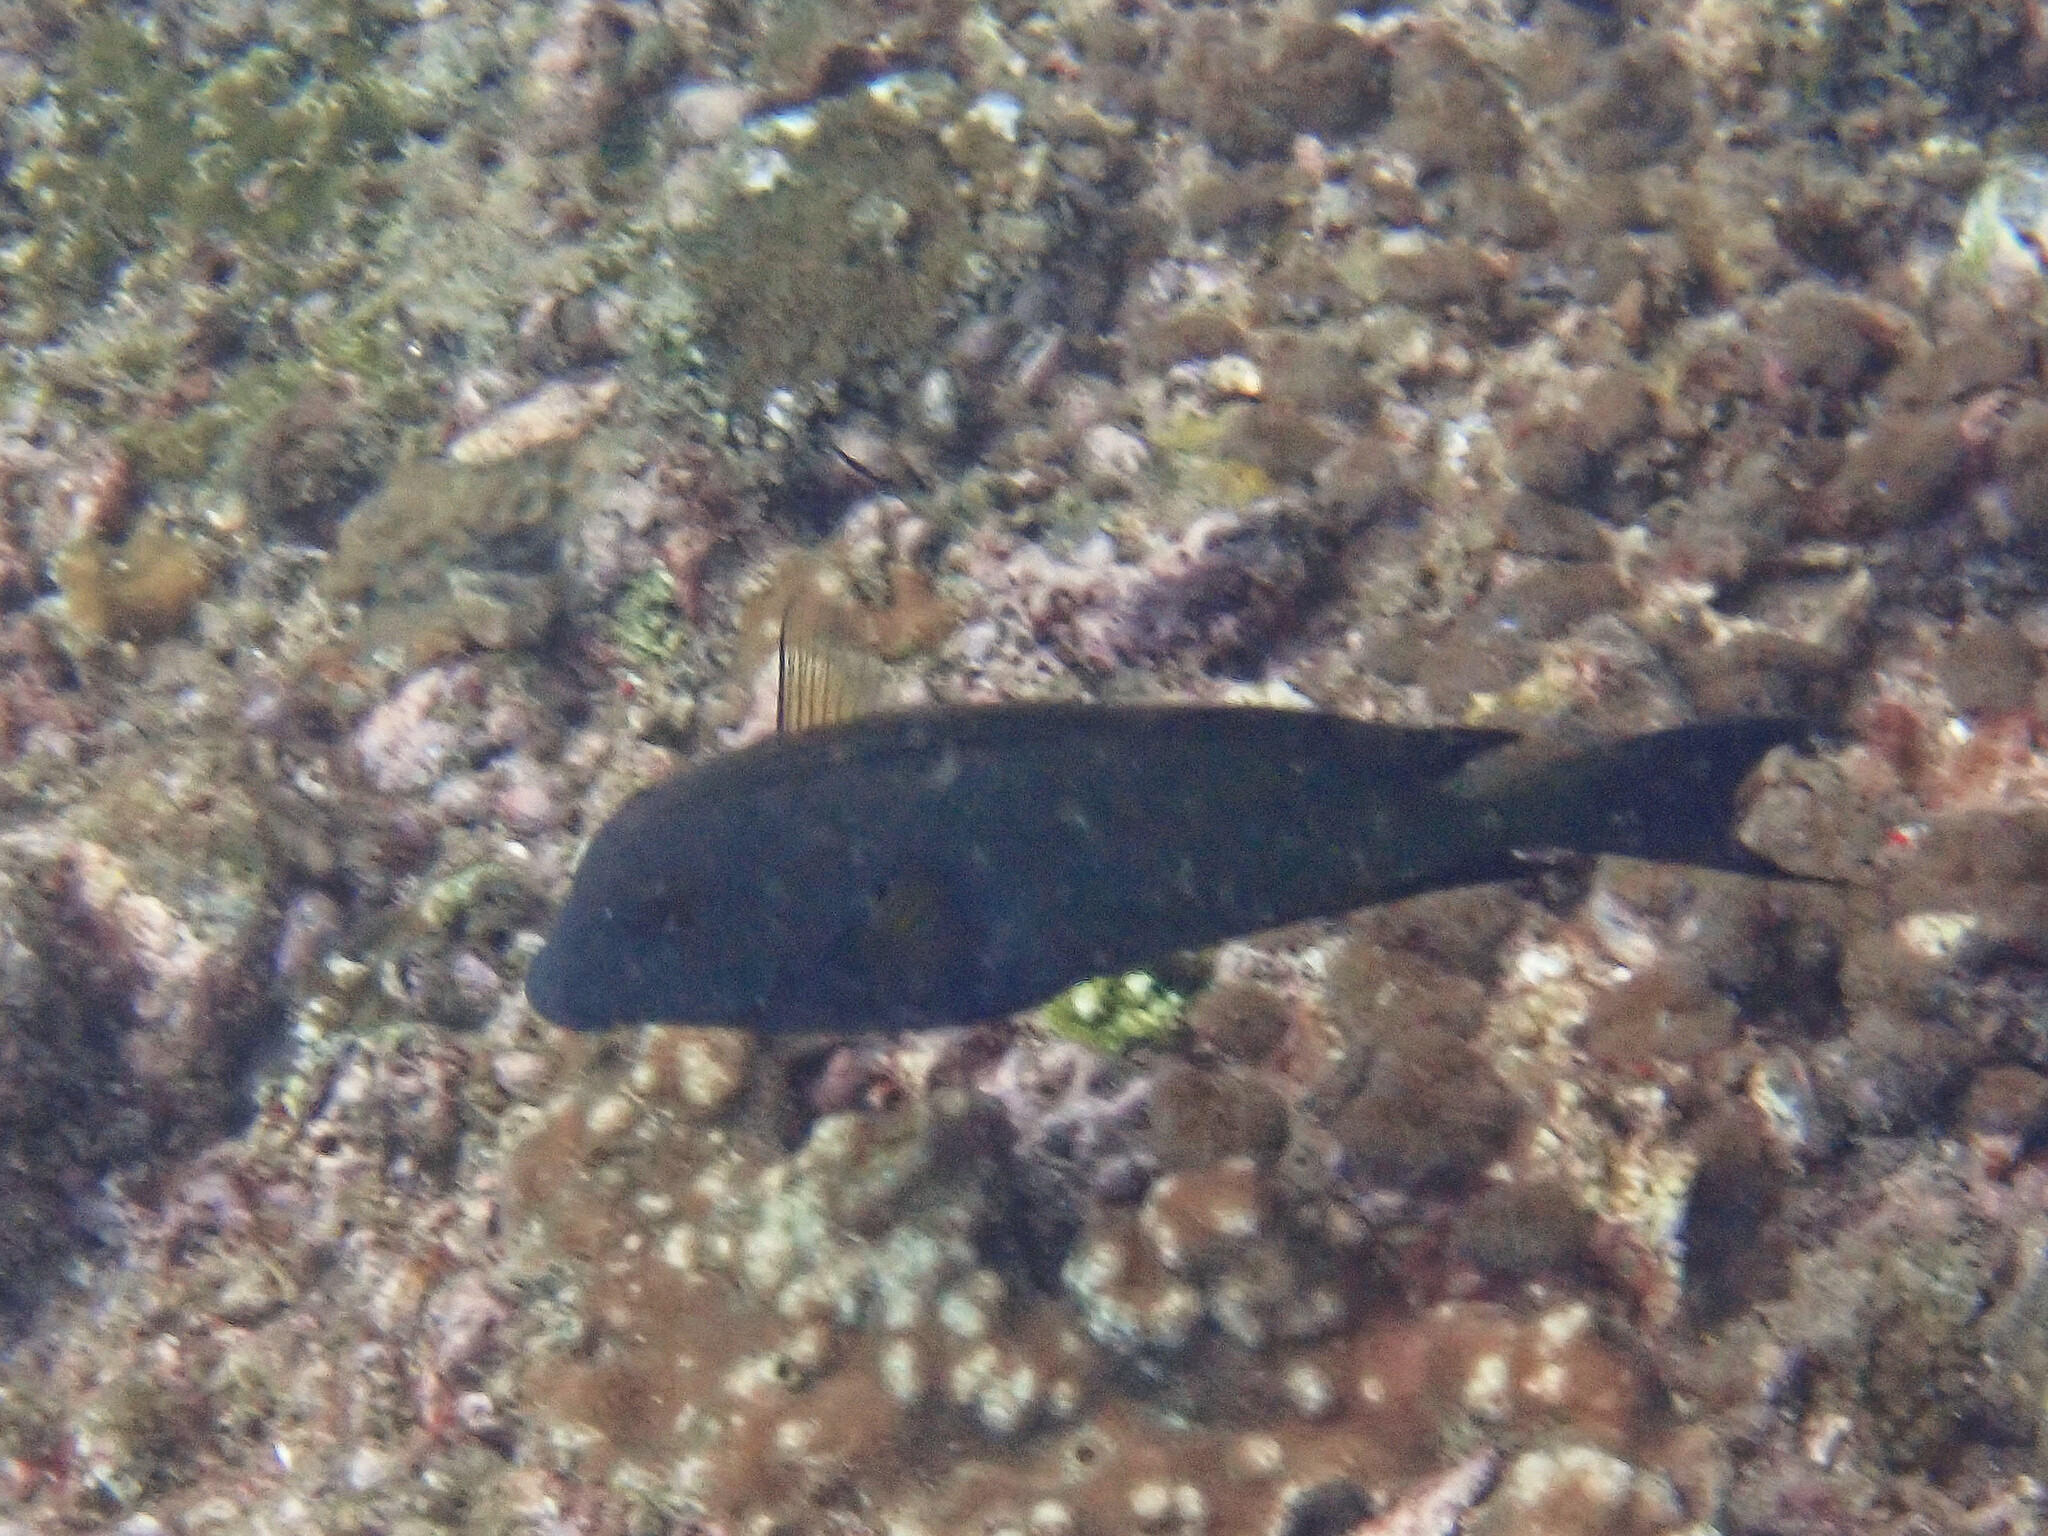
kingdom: Animalia
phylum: Chordata
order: Perciformes
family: Acanthuridae
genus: Ctenochaetus
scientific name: Ctenochaetus striatus
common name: Bristle-toothed surgeonfish
